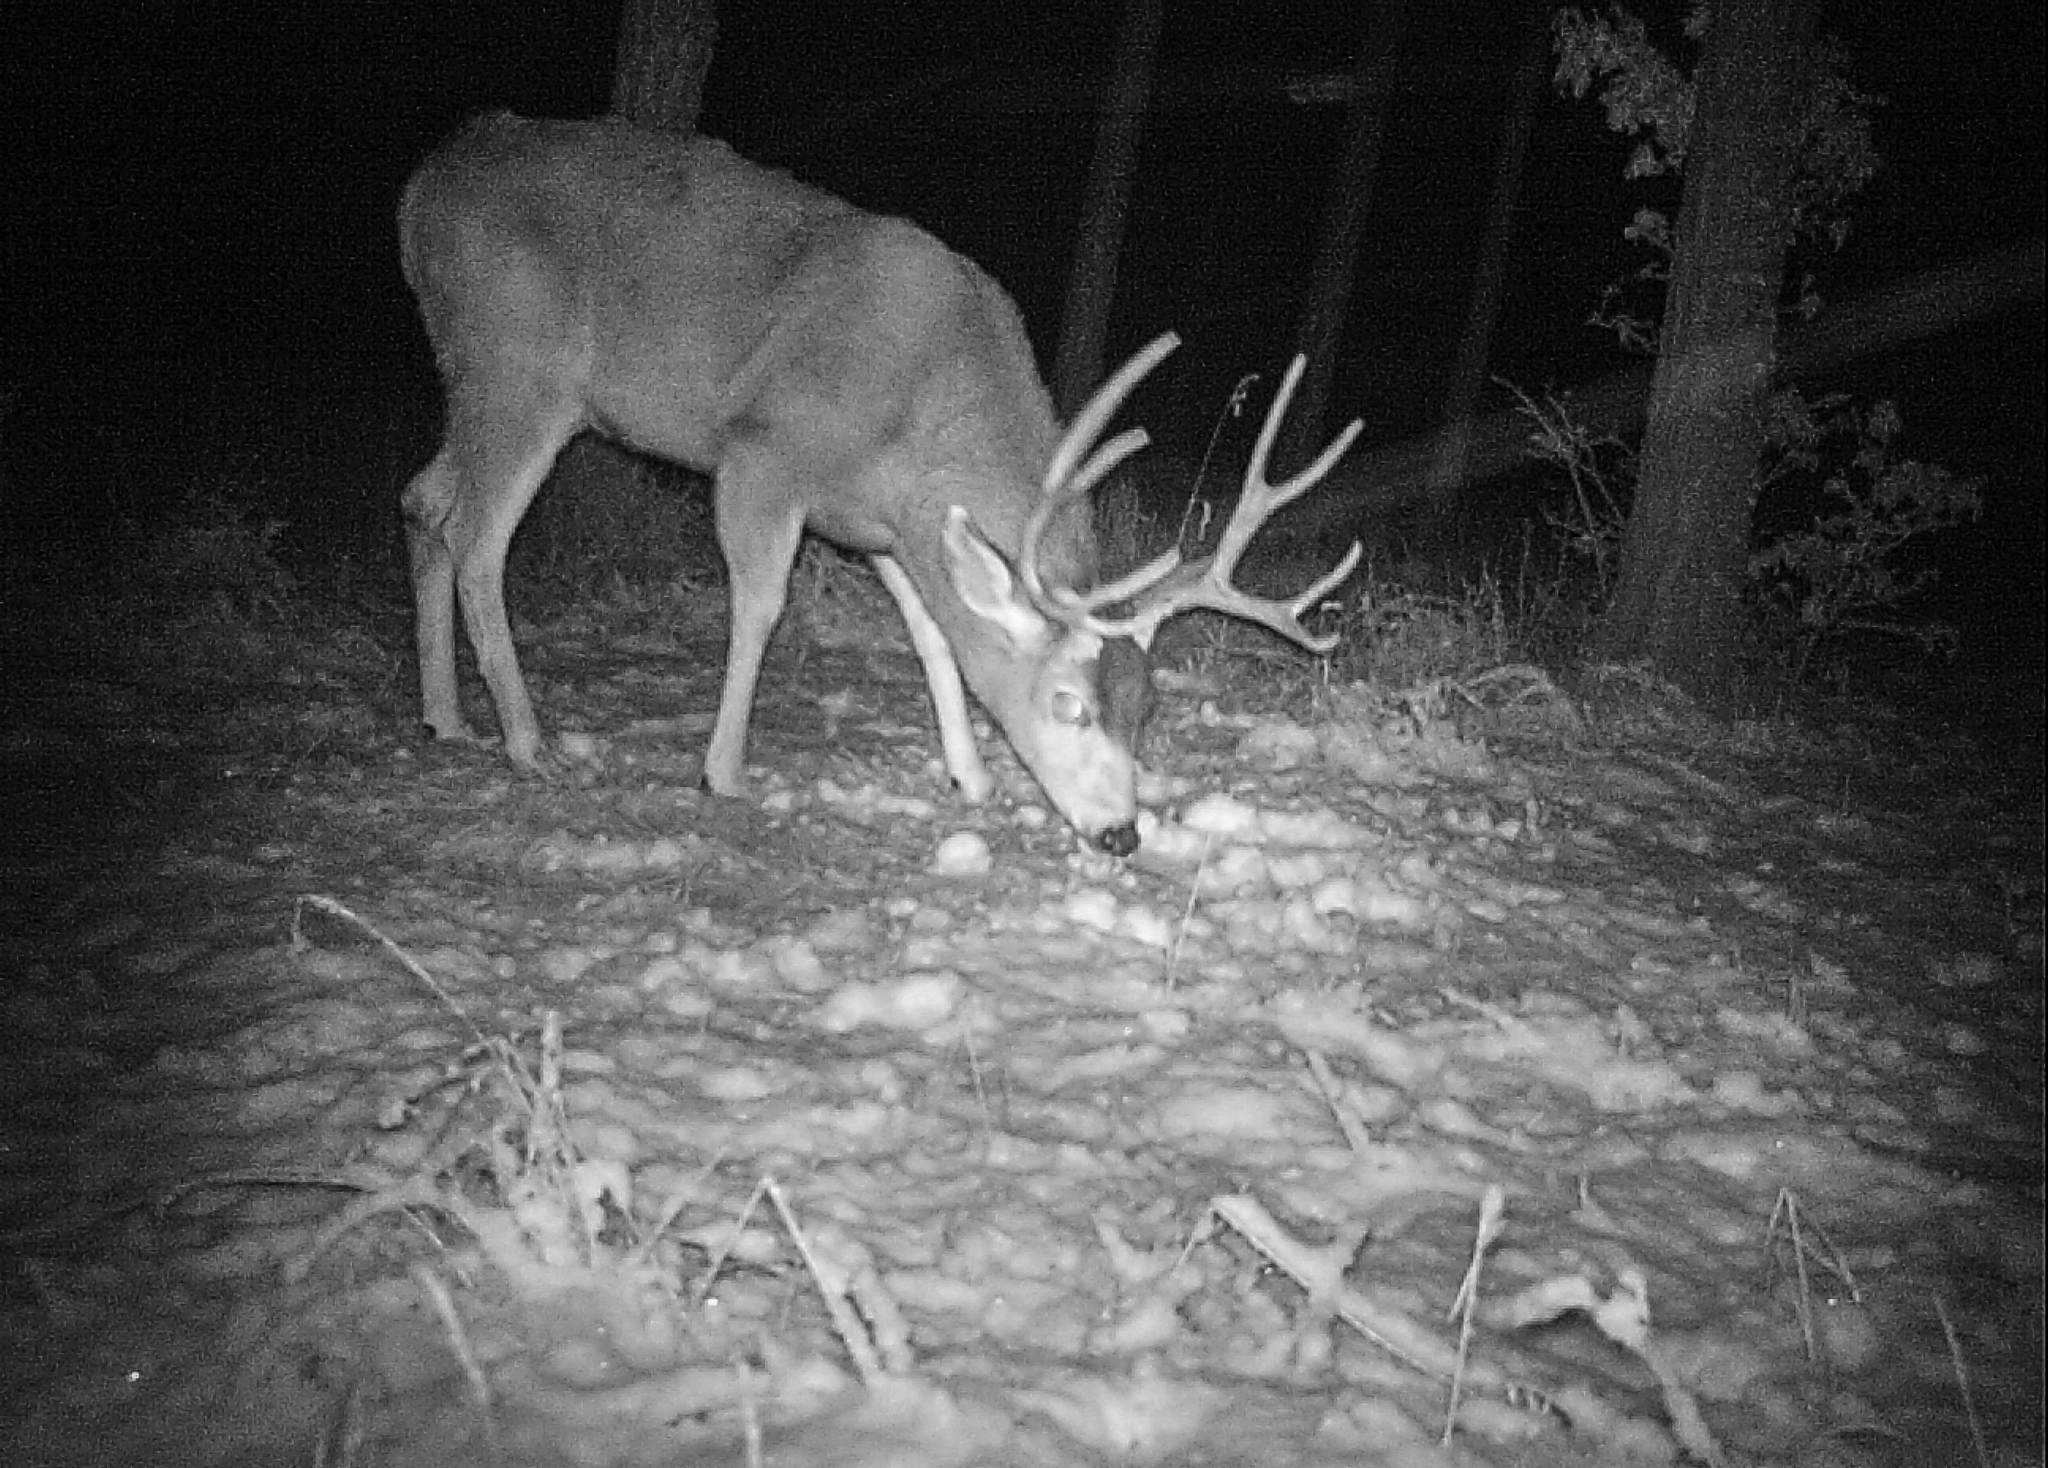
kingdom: Animalia
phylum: Chordata
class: Mammalia
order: Artiodactyla
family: Cervidae
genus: Odocoileus
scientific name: Odocoileus hemionus
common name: Mule deer
